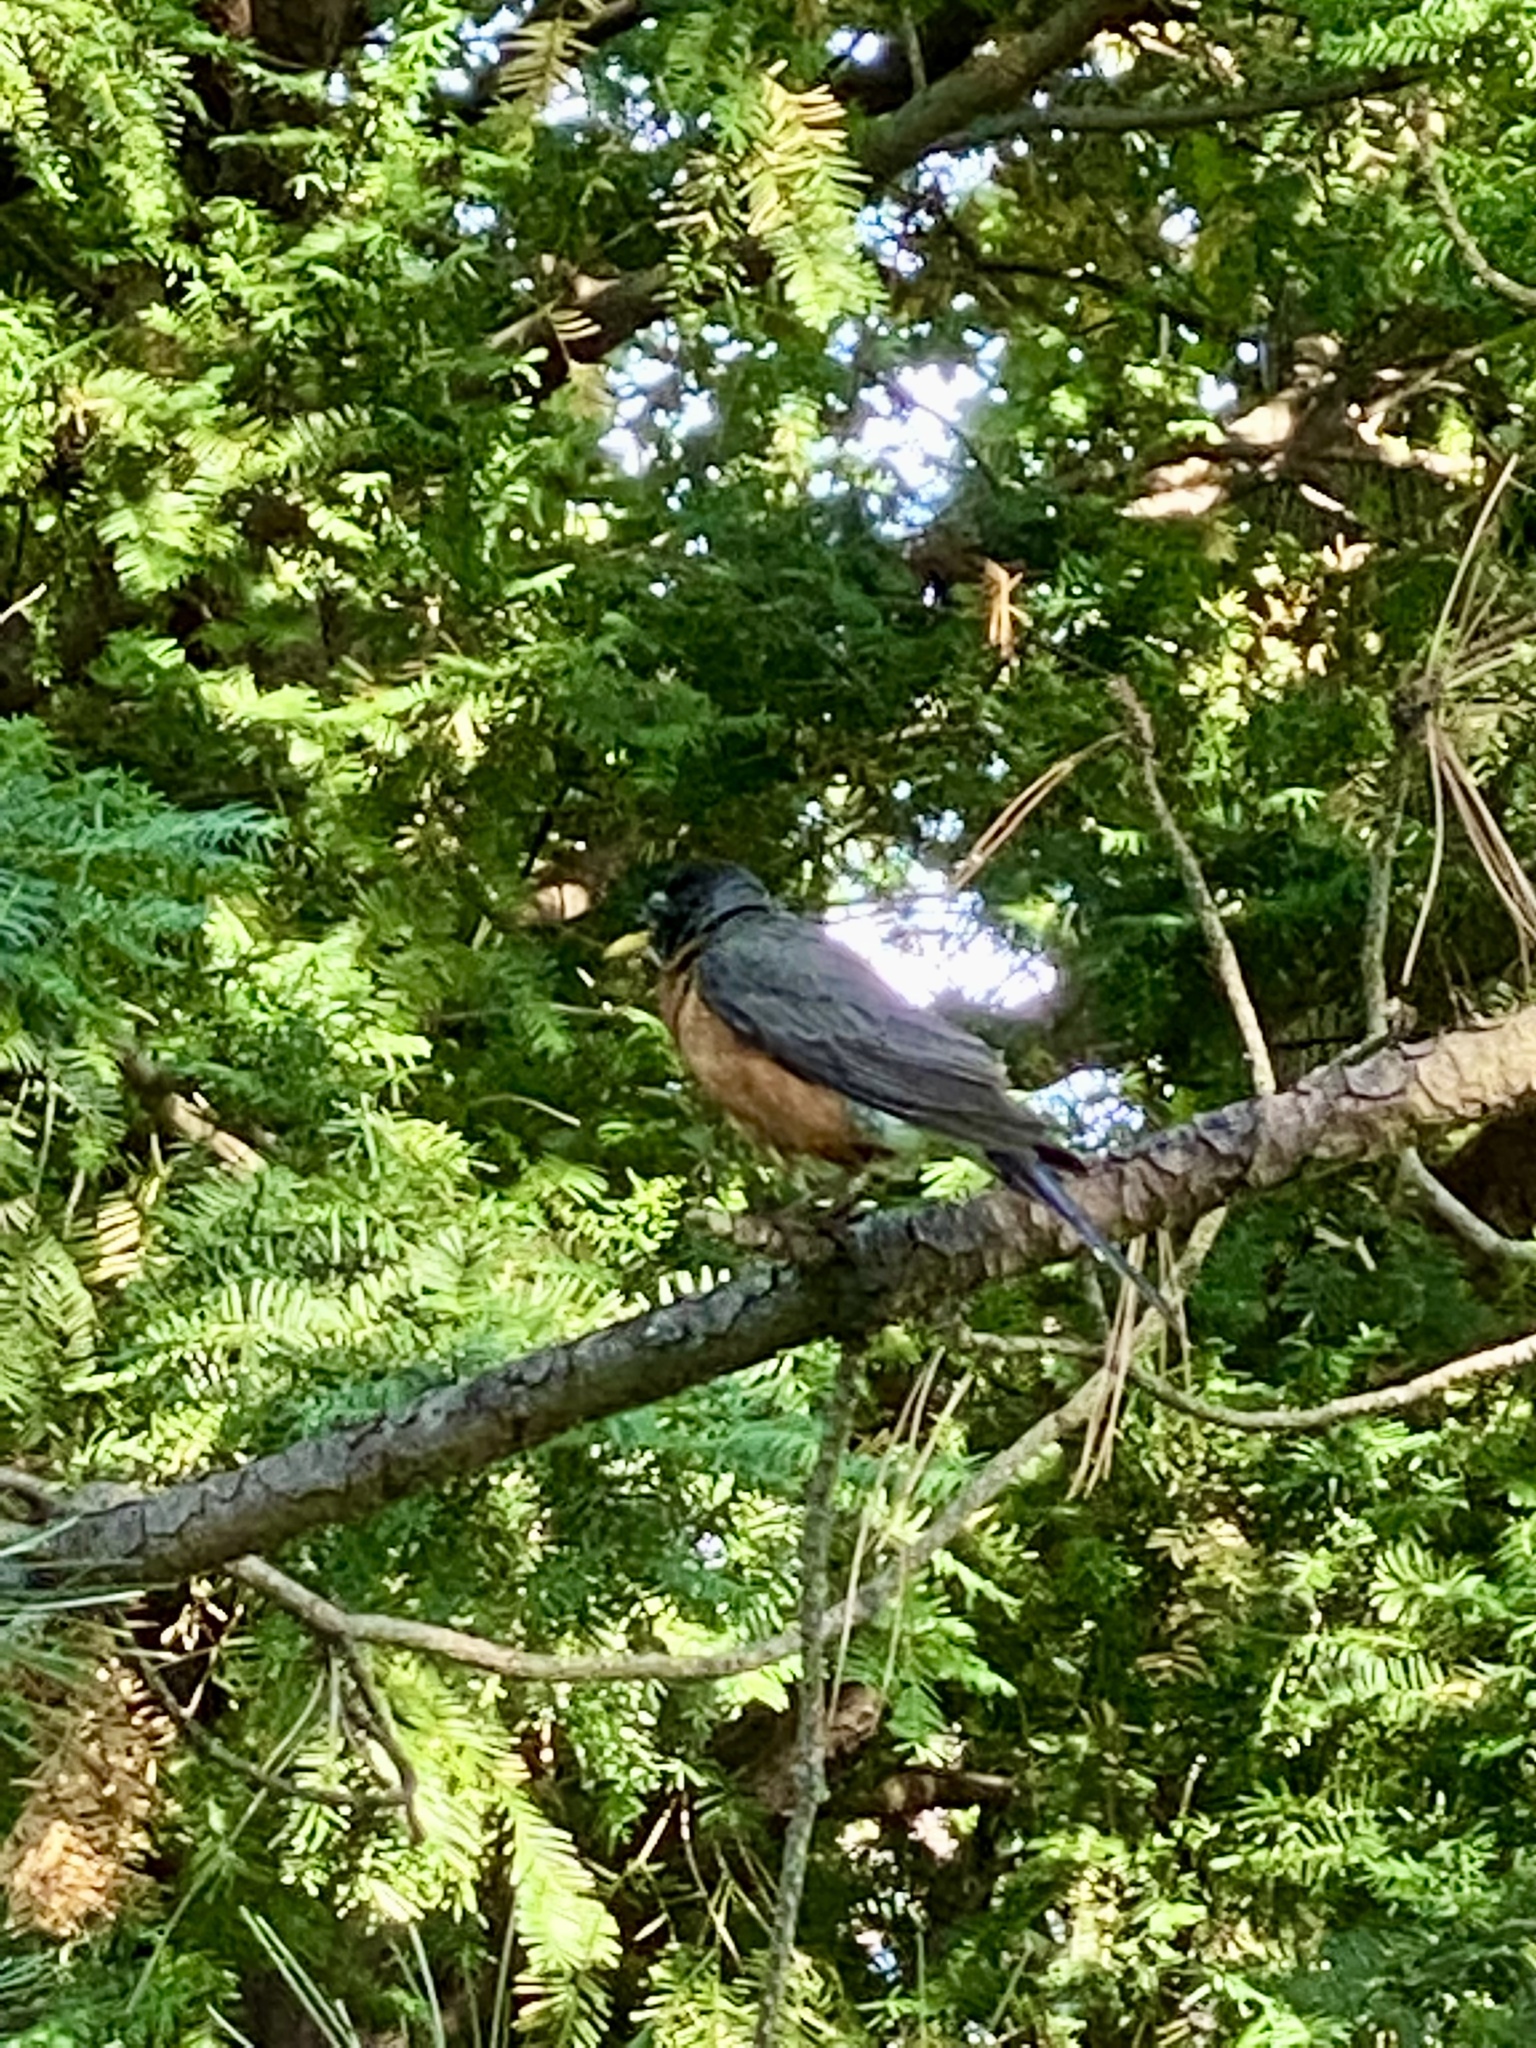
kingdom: Animalia
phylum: Chordata
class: Aves
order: Passeriformes
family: Turdidae
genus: Turdus
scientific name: Turdus migratorius
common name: American robin
